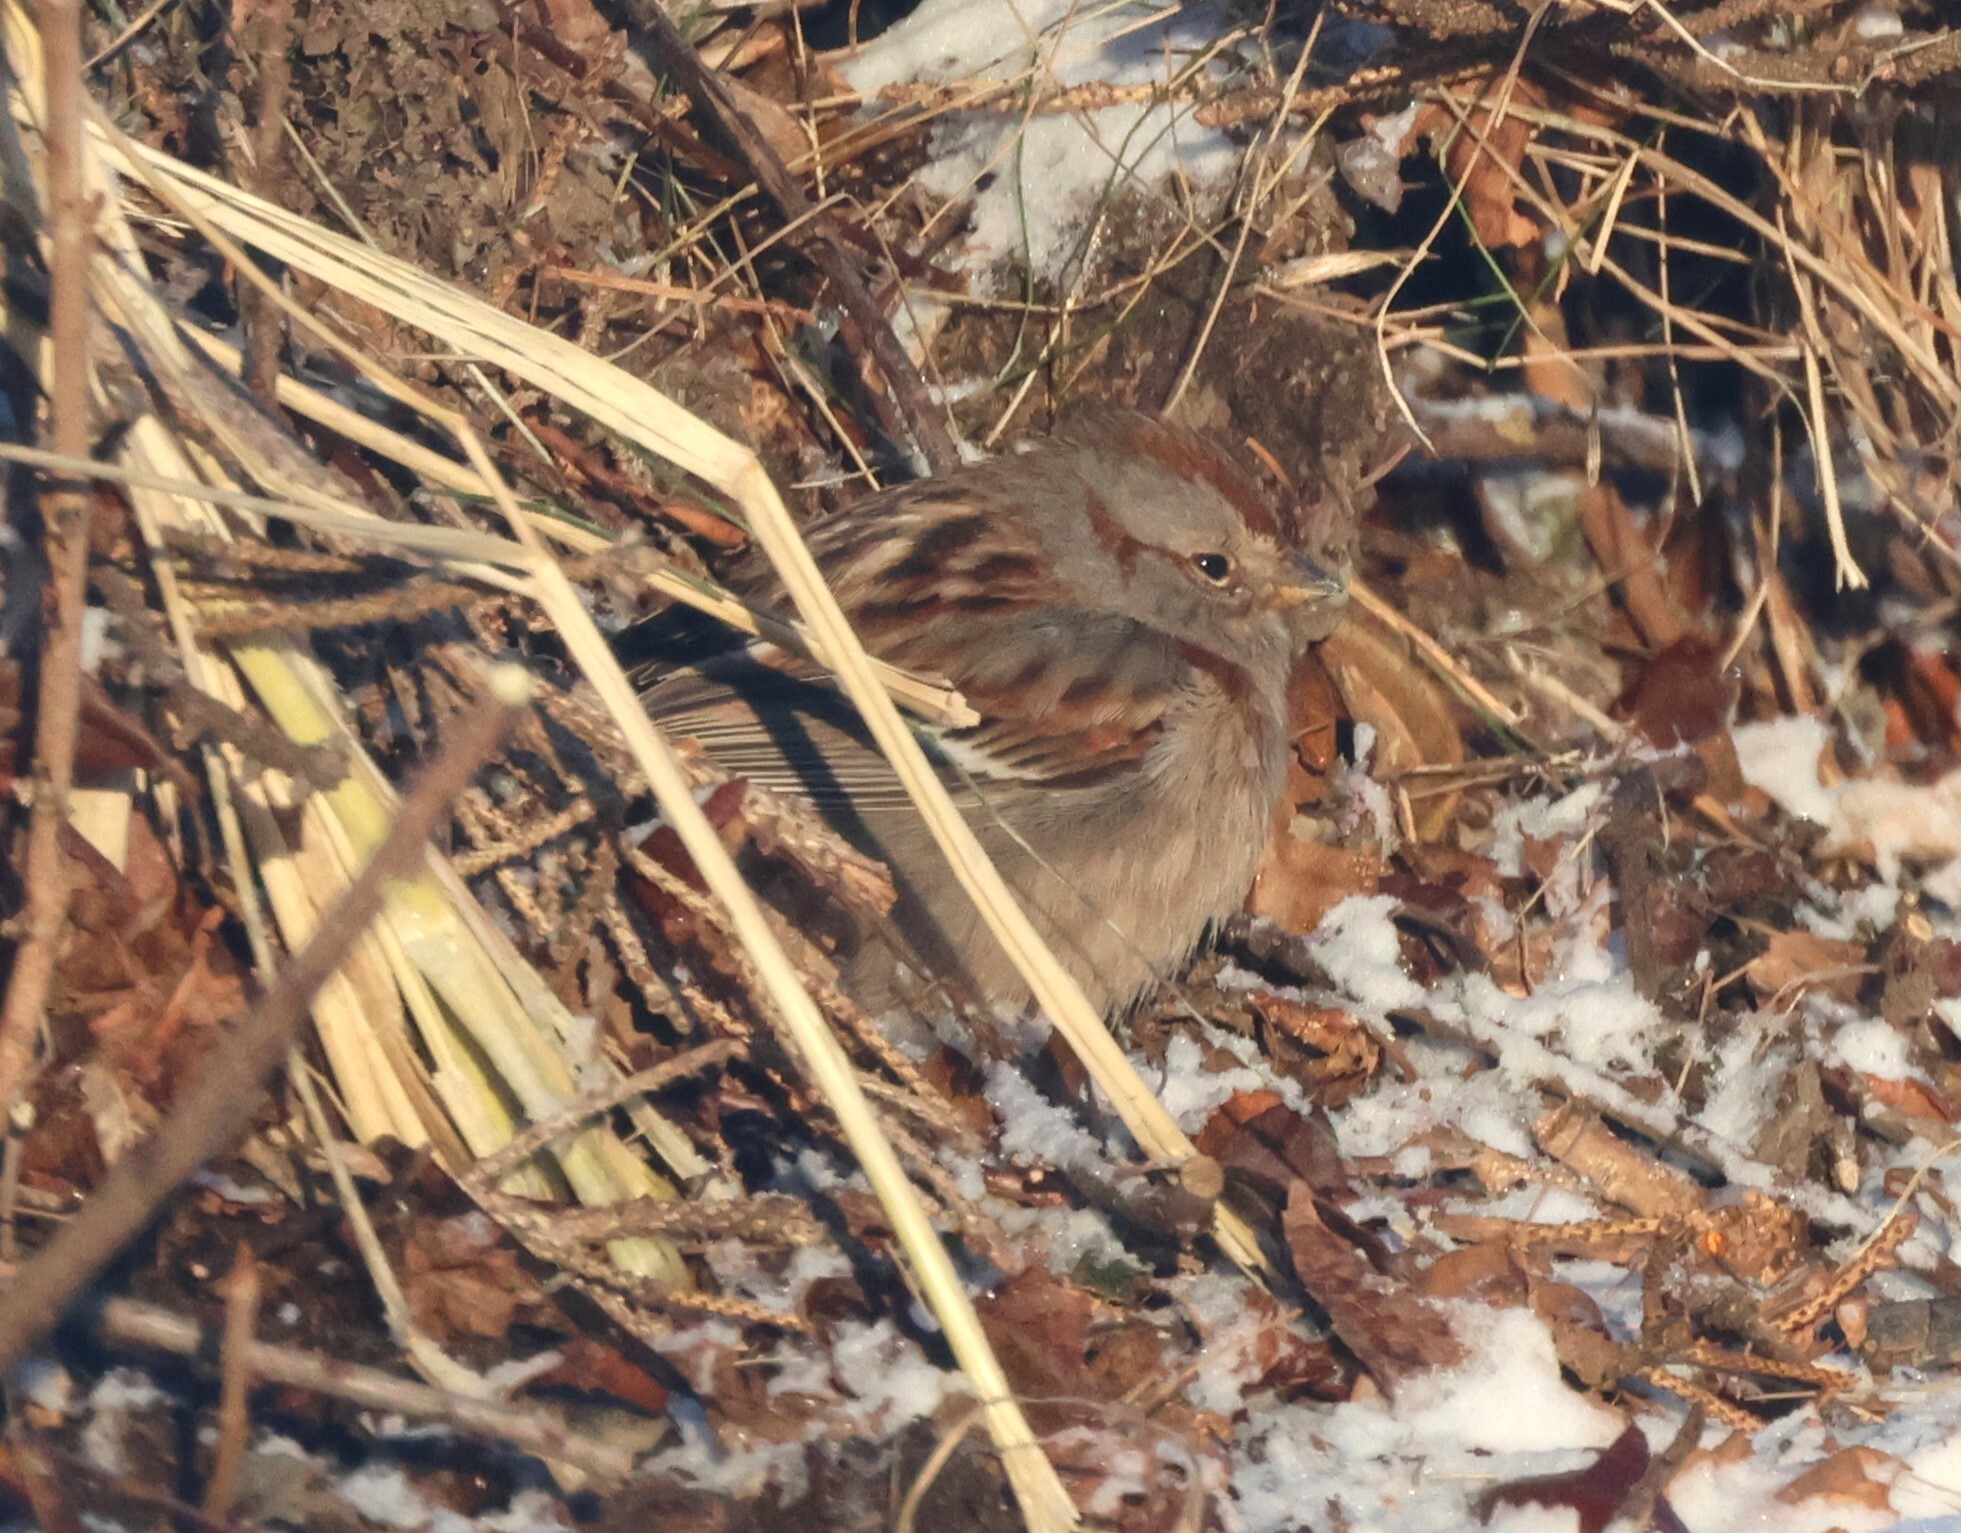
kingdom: Animalia
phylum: Chordata
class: Aves
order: Passeriformes
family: Passerellidae
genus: Spizelloides
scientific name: Spizelloides arborea
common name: American tree sparrow
